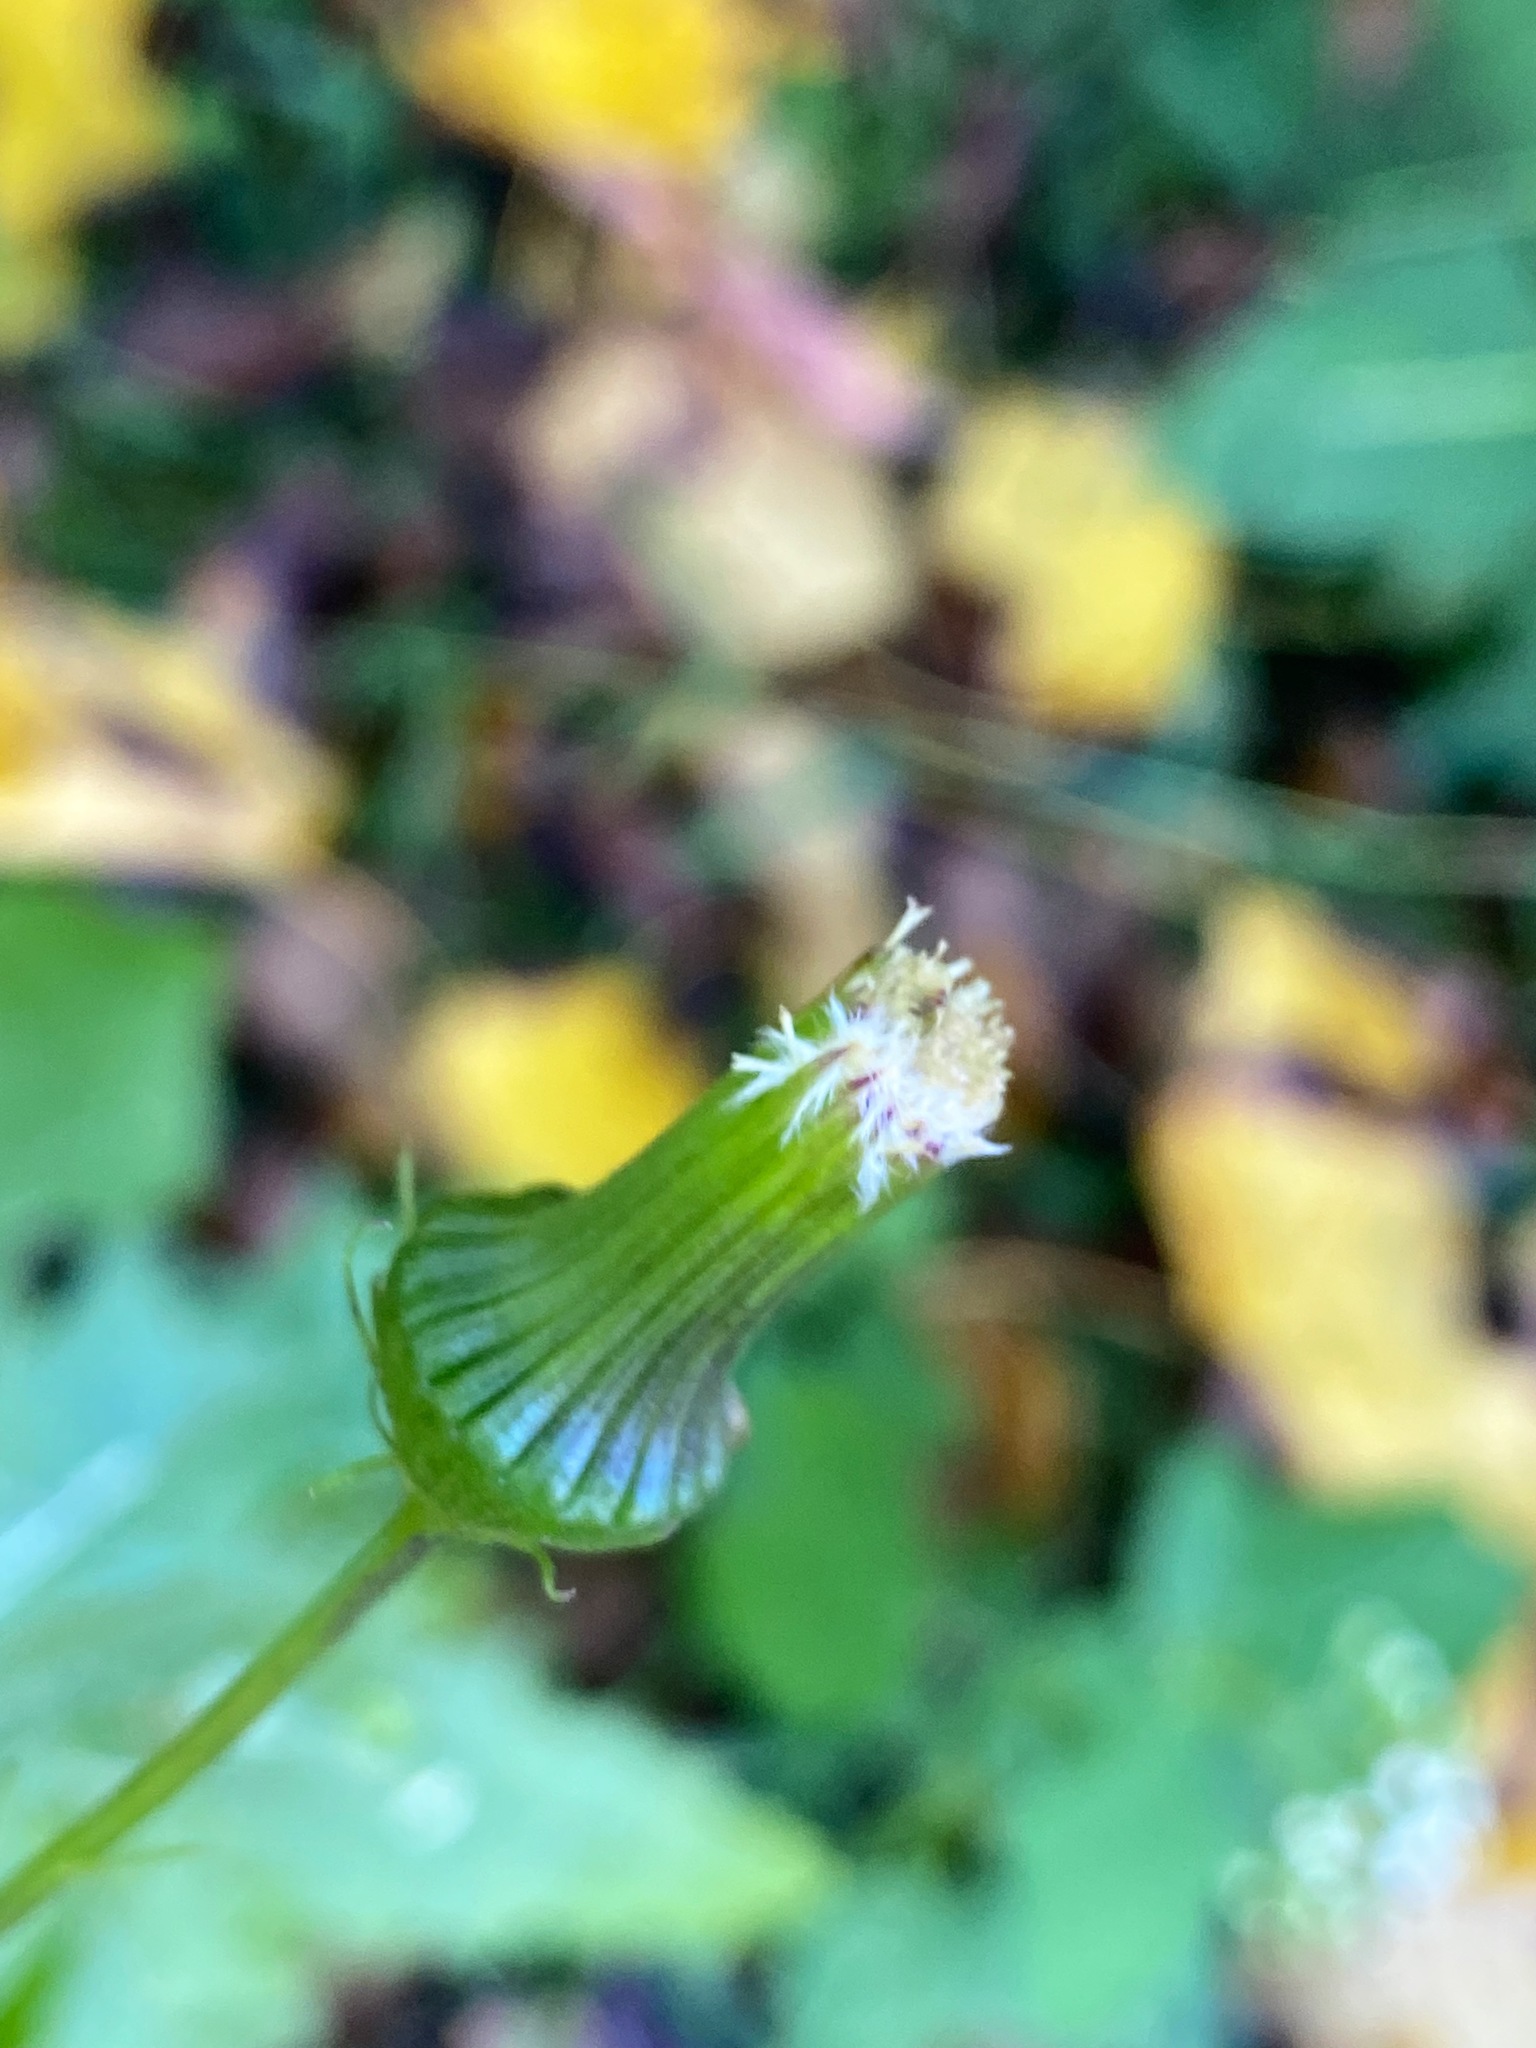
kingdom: Plantae
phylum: Tracheophyta
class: Magnoliopsida
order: Asterales
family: Asteraceae
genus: Erechtites
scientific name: Erechtites hieraciifolius
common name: American burnweed
